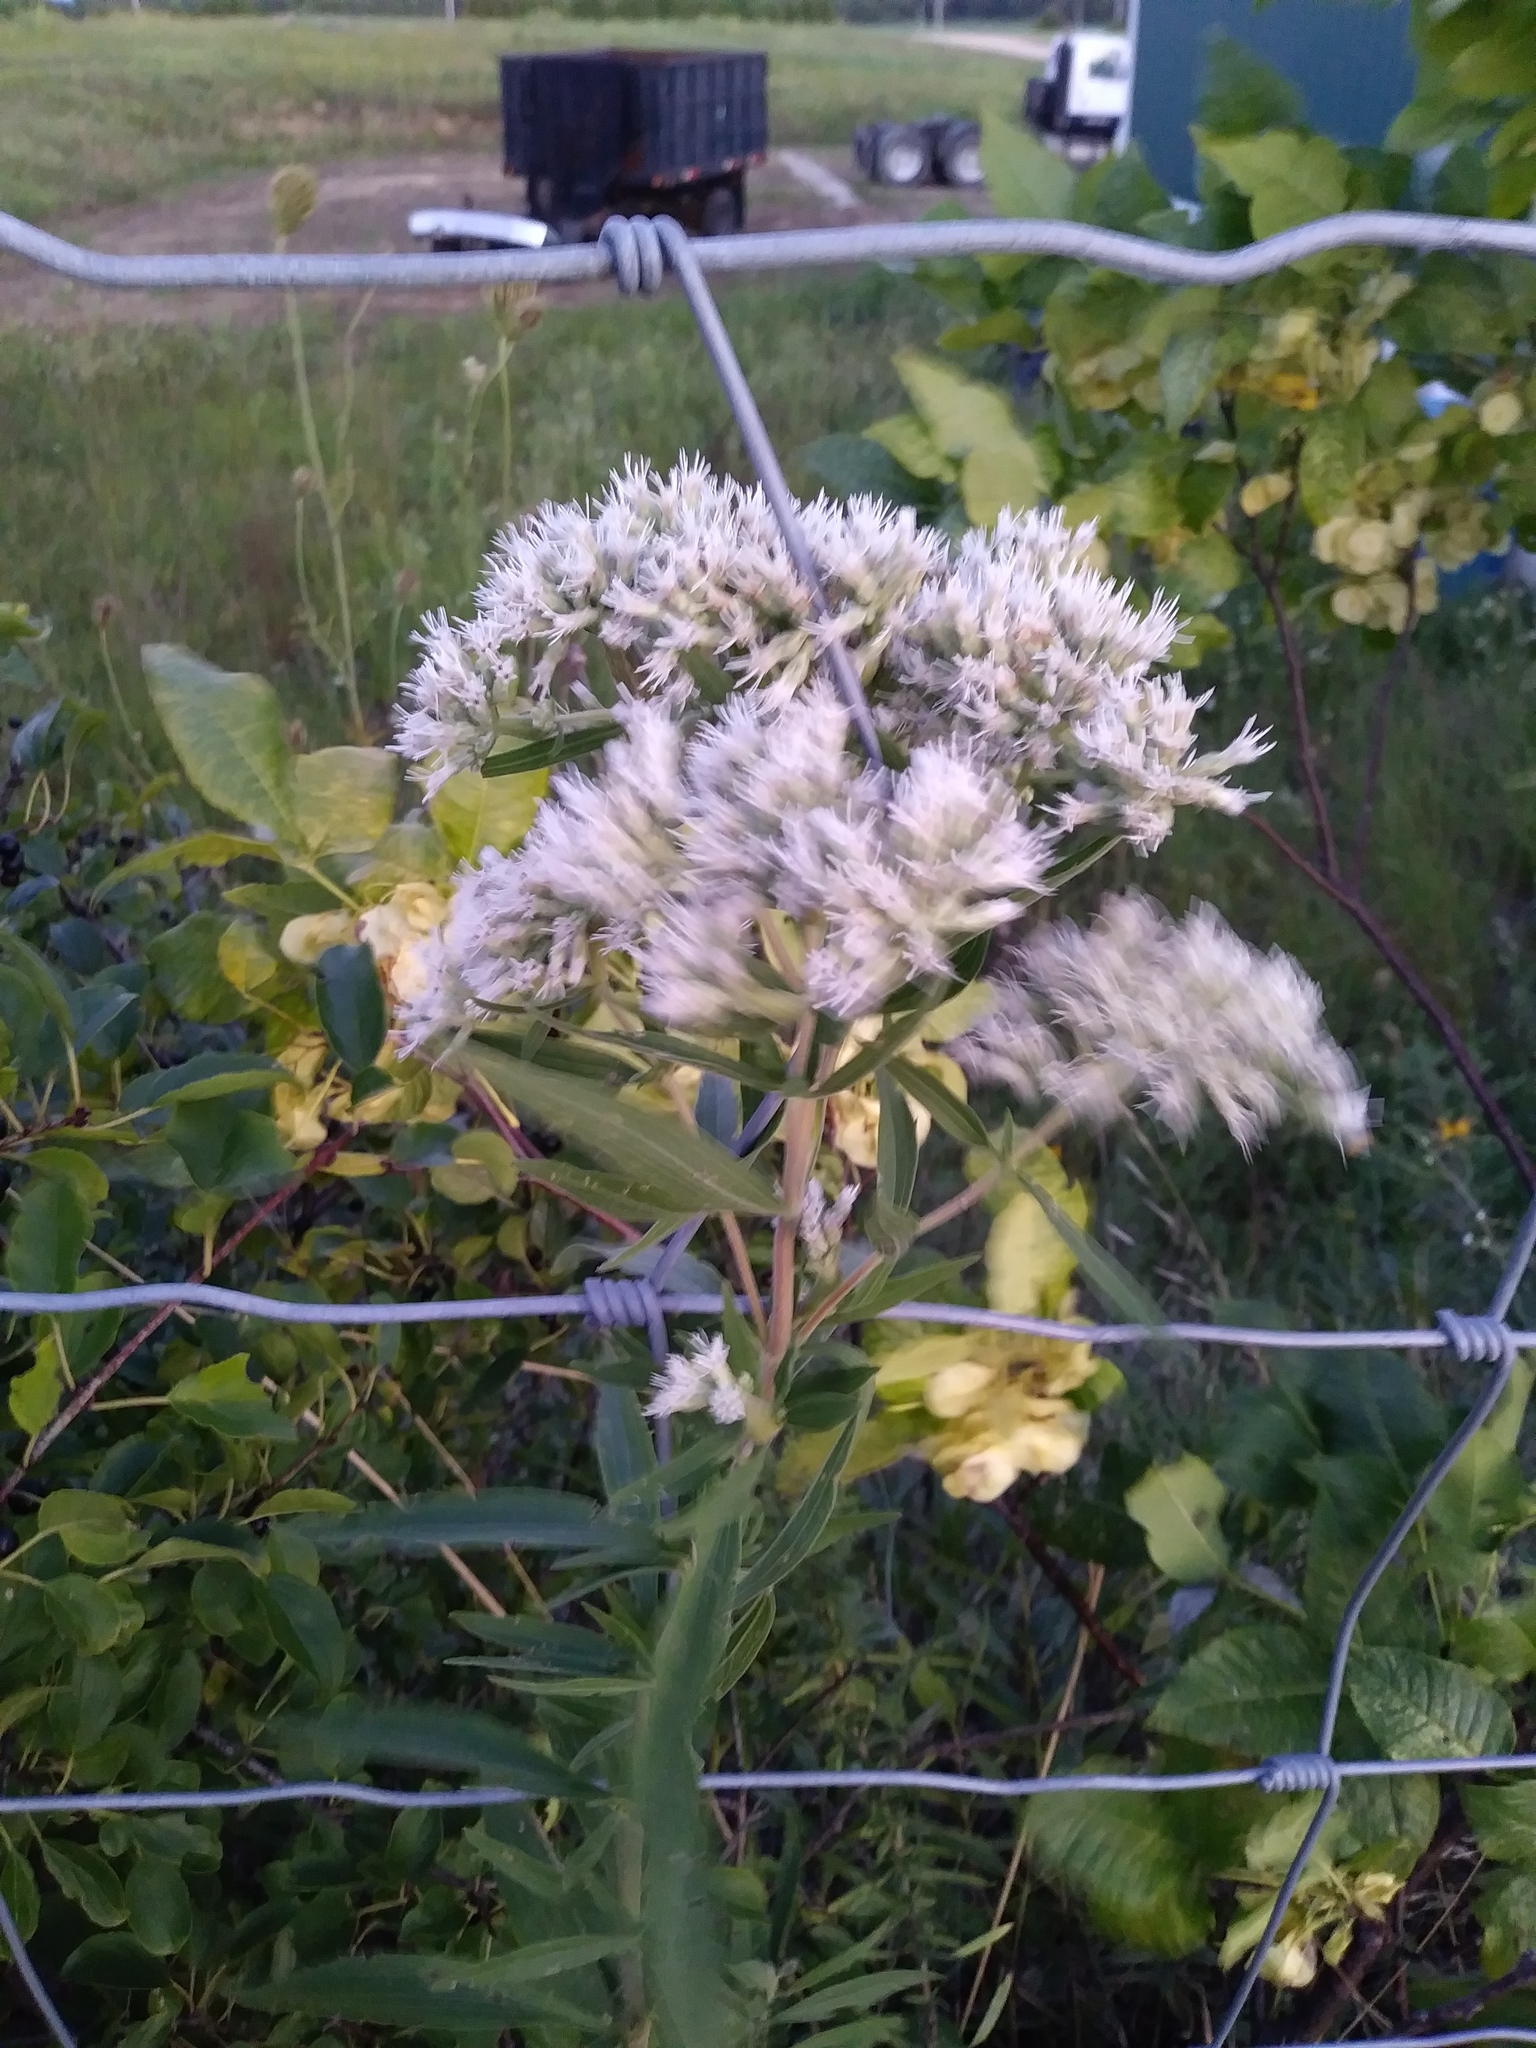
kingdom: Plantae
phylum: Tracheophyta
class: Magnoliopsida
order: Asterales
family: Asteraceae
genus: Eupatorium
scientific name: Eupatorium altissimum
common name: Tall thoroughwort
